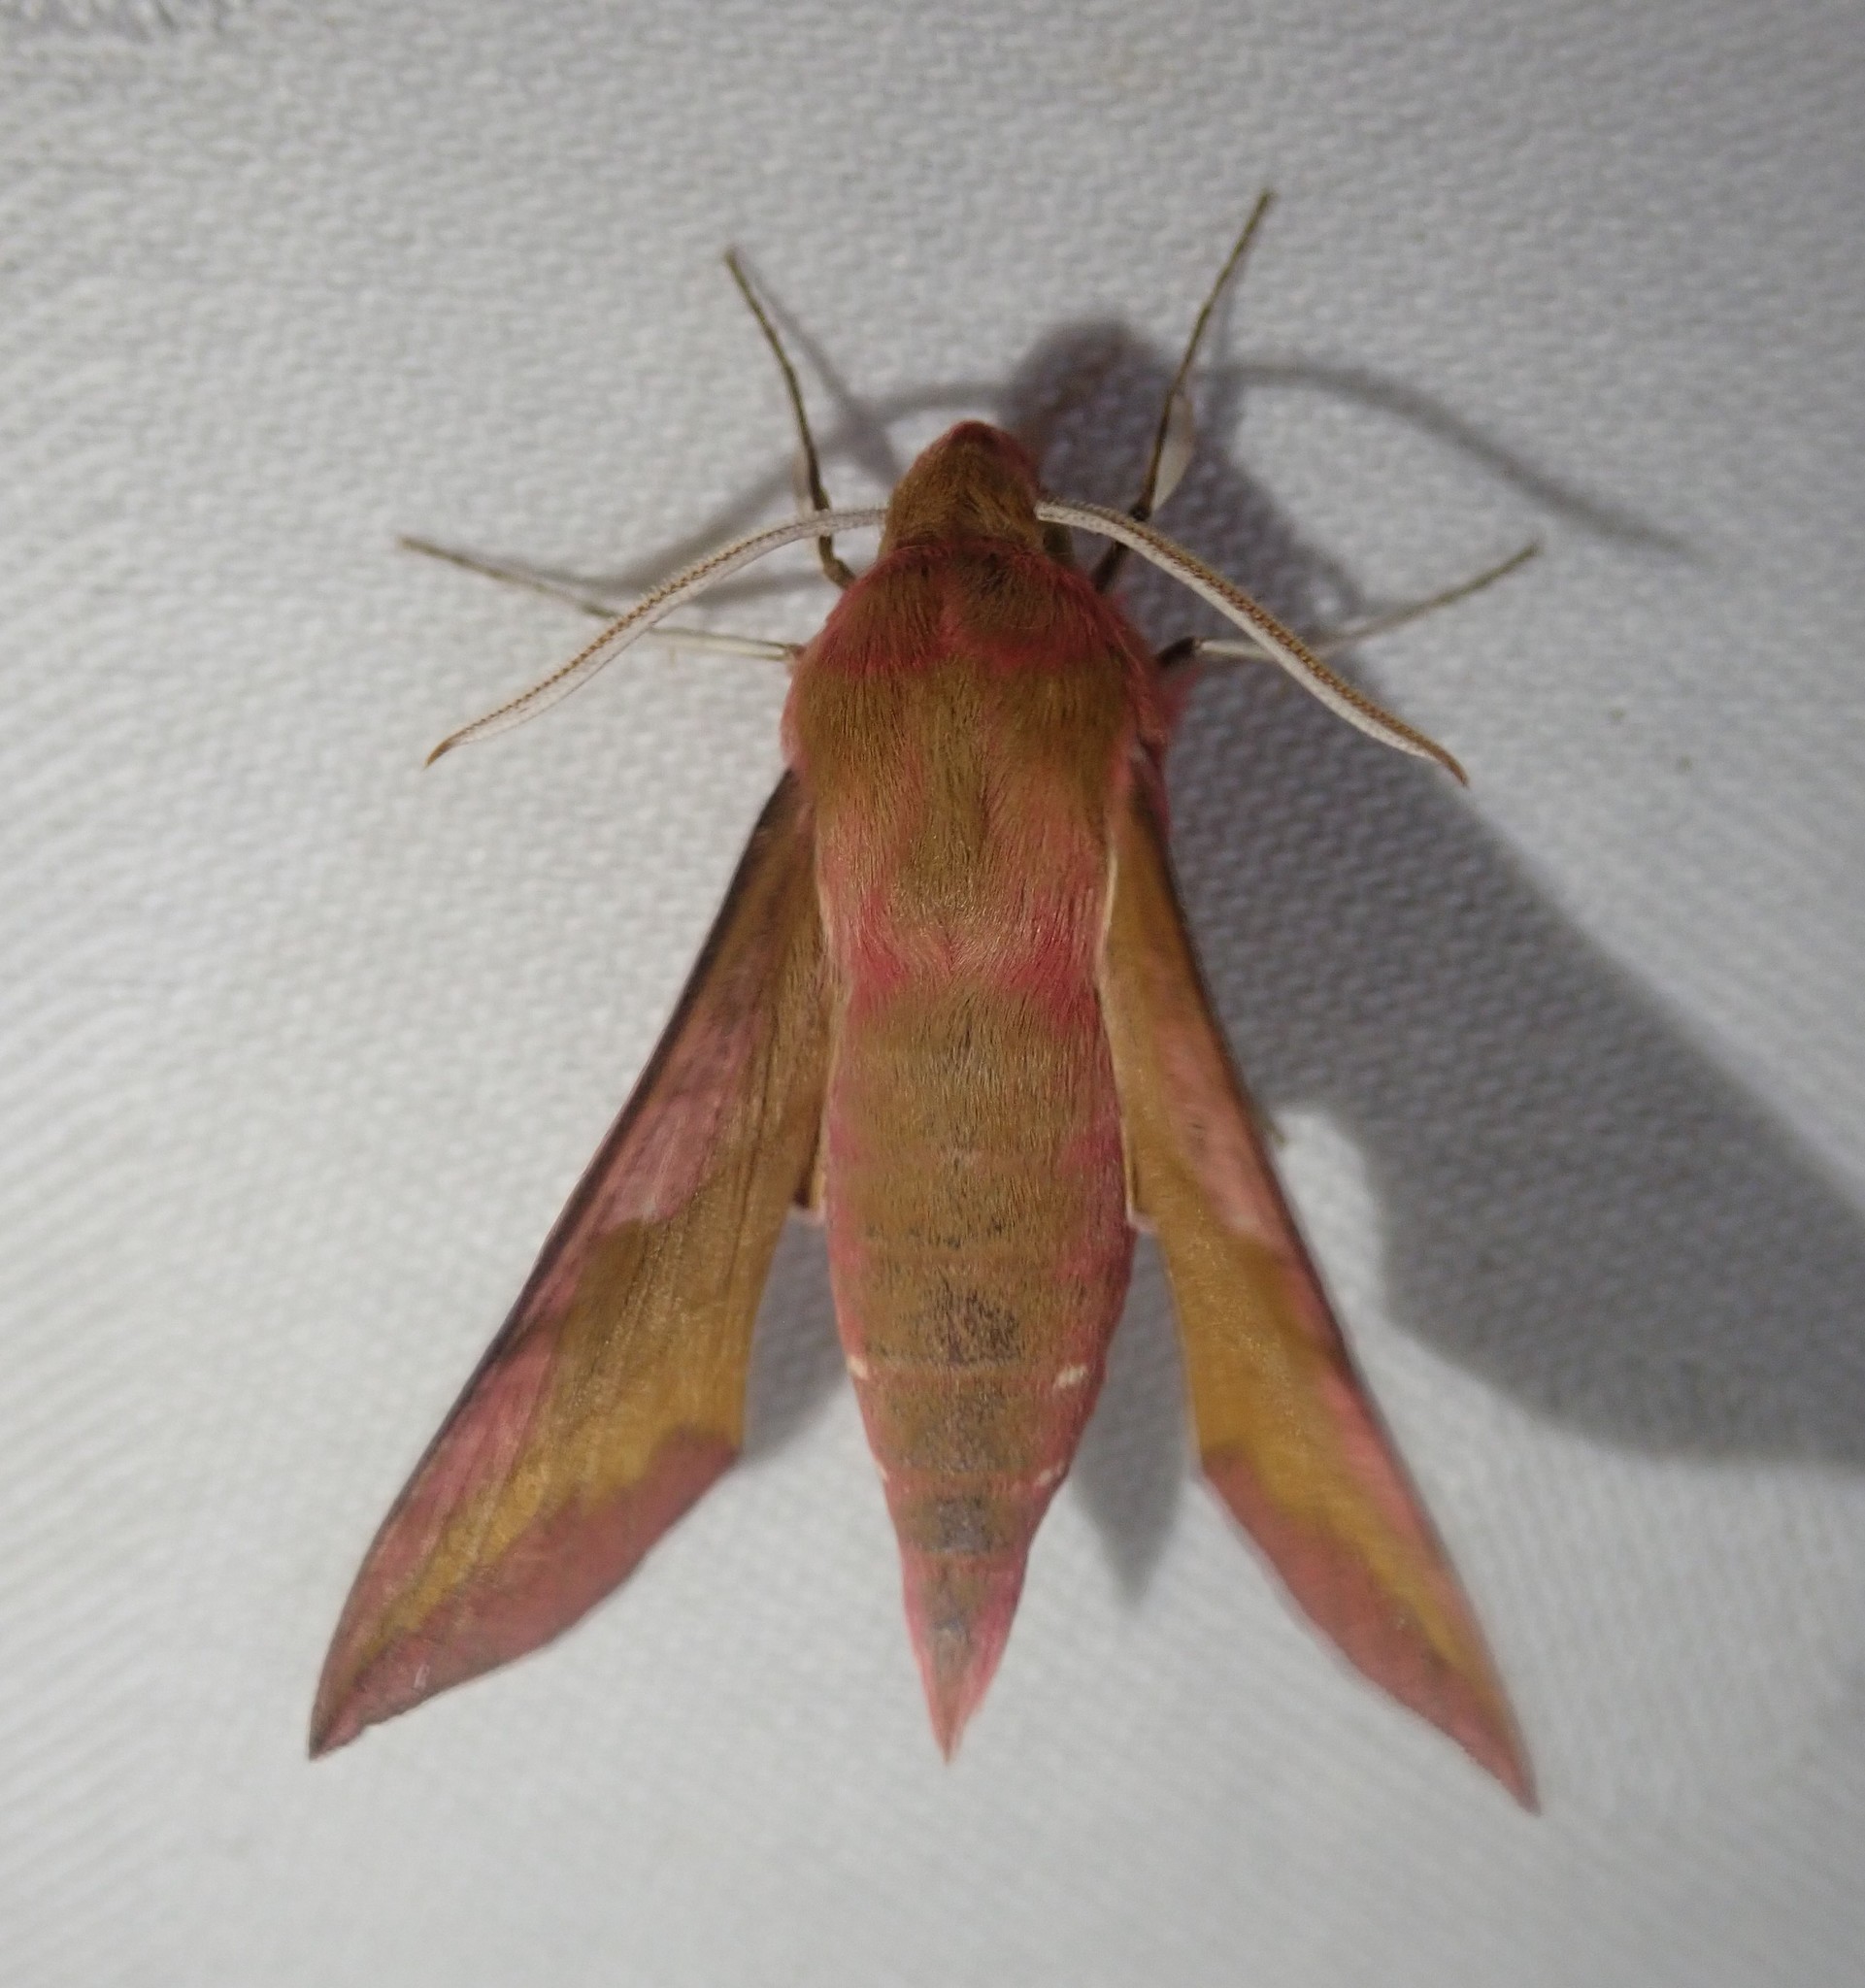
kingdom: Animalia
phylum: Arthropoda
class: Insecta
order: Lepidoptera
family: Sphingidae
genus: Deilephila
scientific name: Deilephila porcellus
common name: Small elephant hawk-moth
